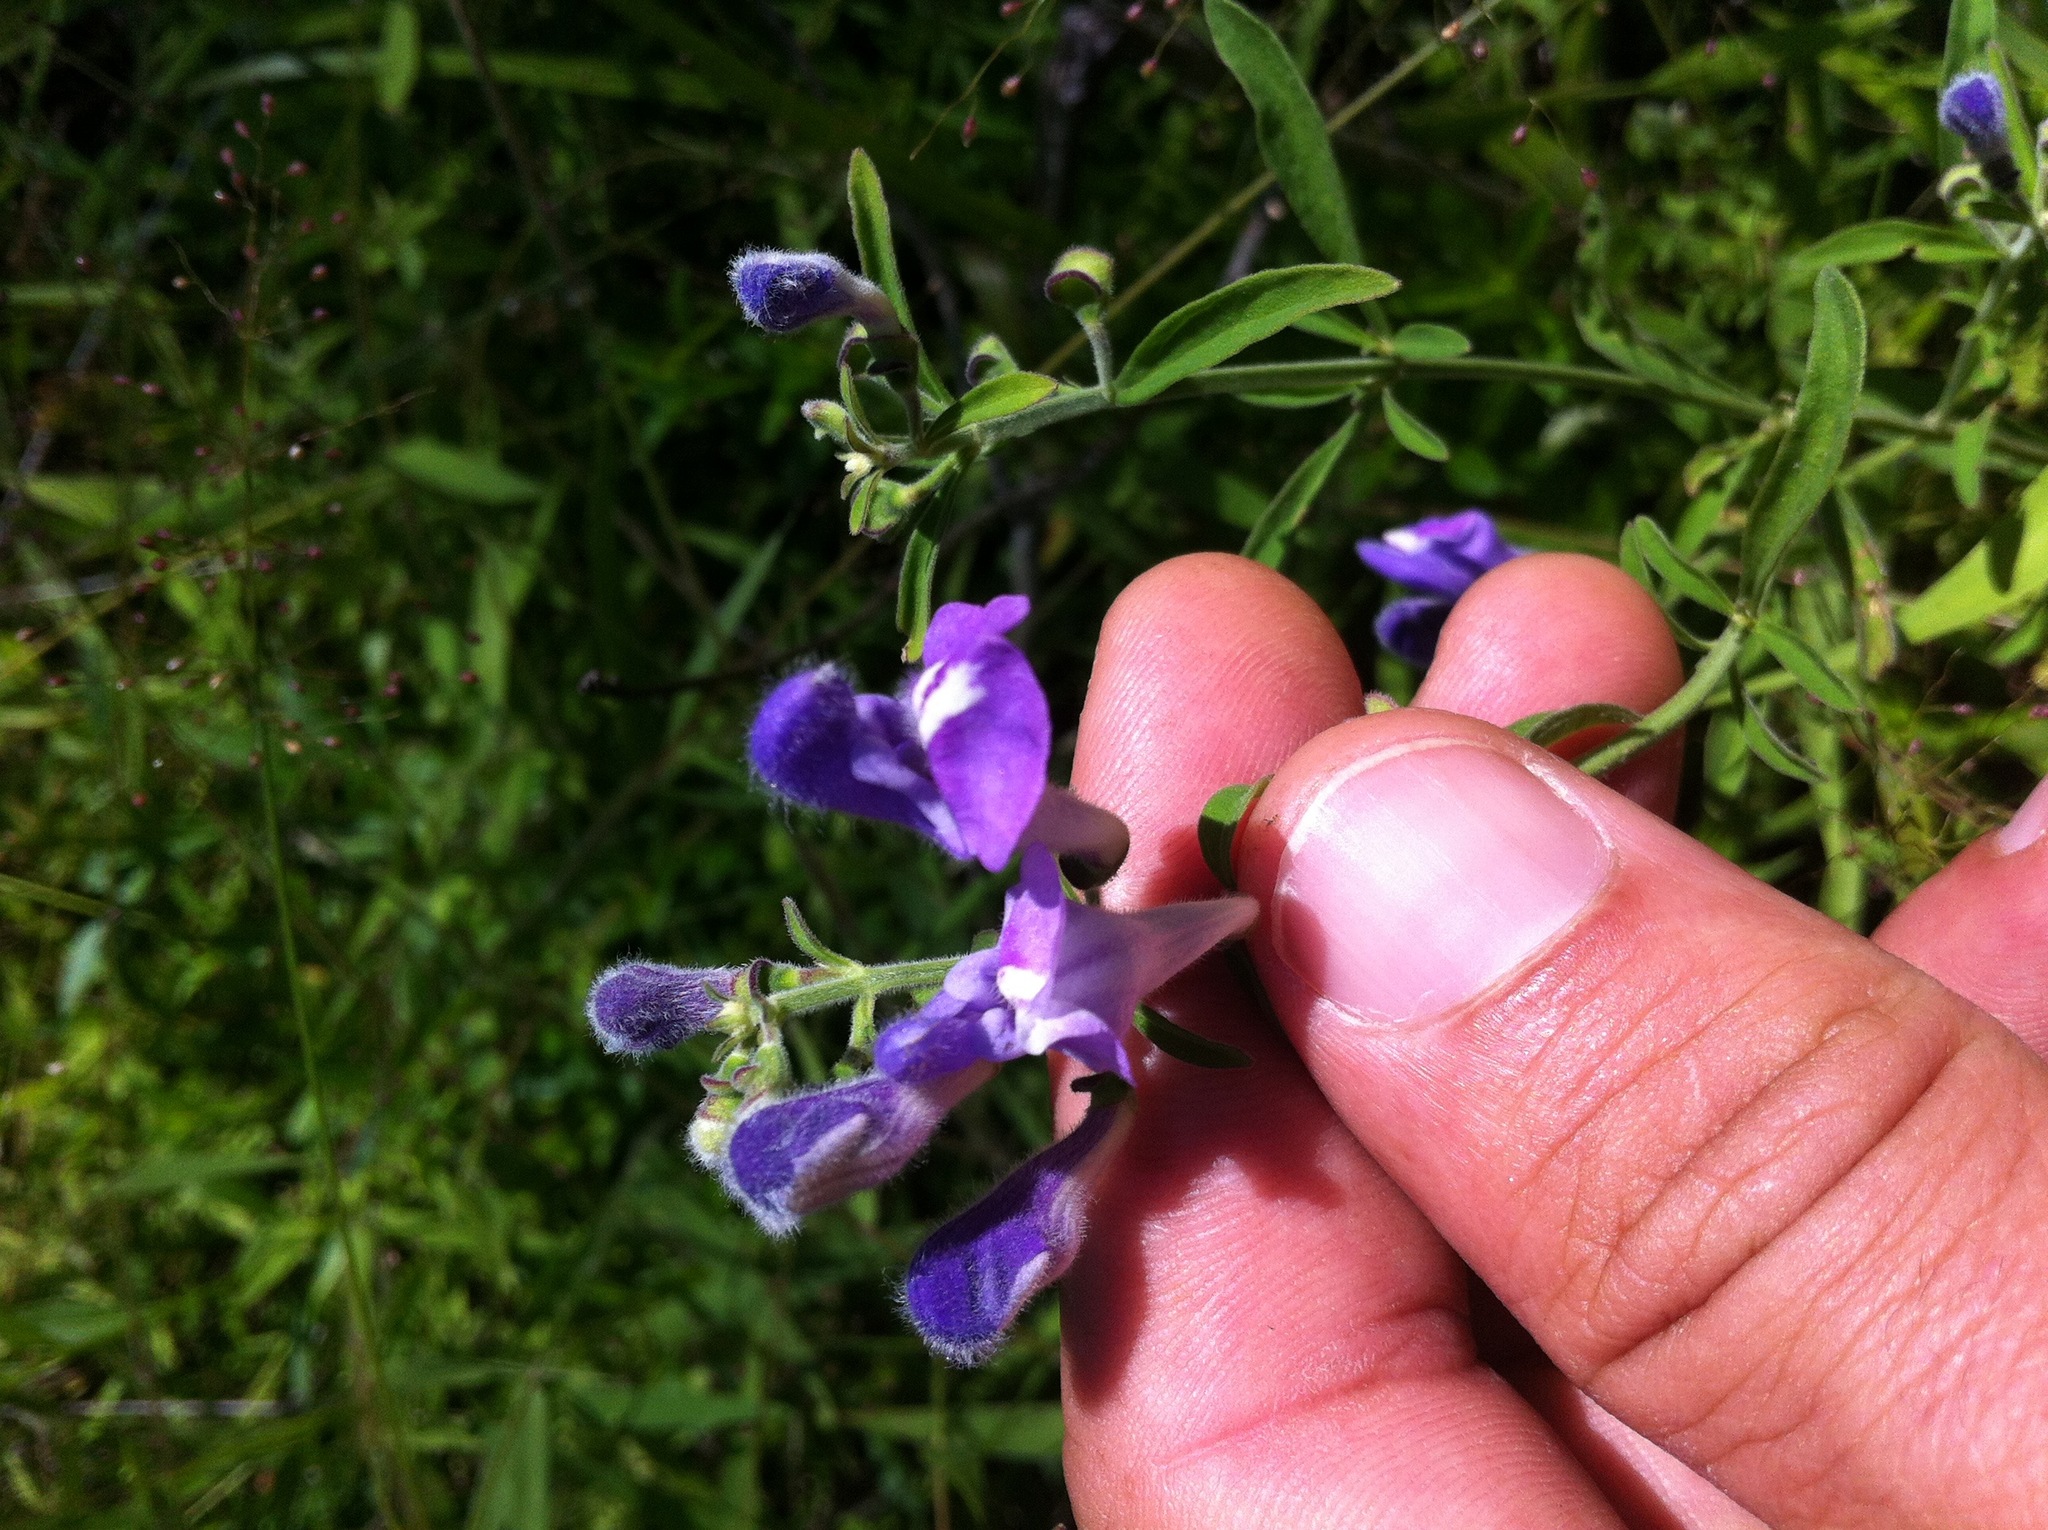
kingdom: Plantae
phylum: Tracheophyta
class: Magnoliopsida
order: Lamiales
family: Lamiaceae
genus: Scutellaria
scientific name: Scutellaria integrifolia
